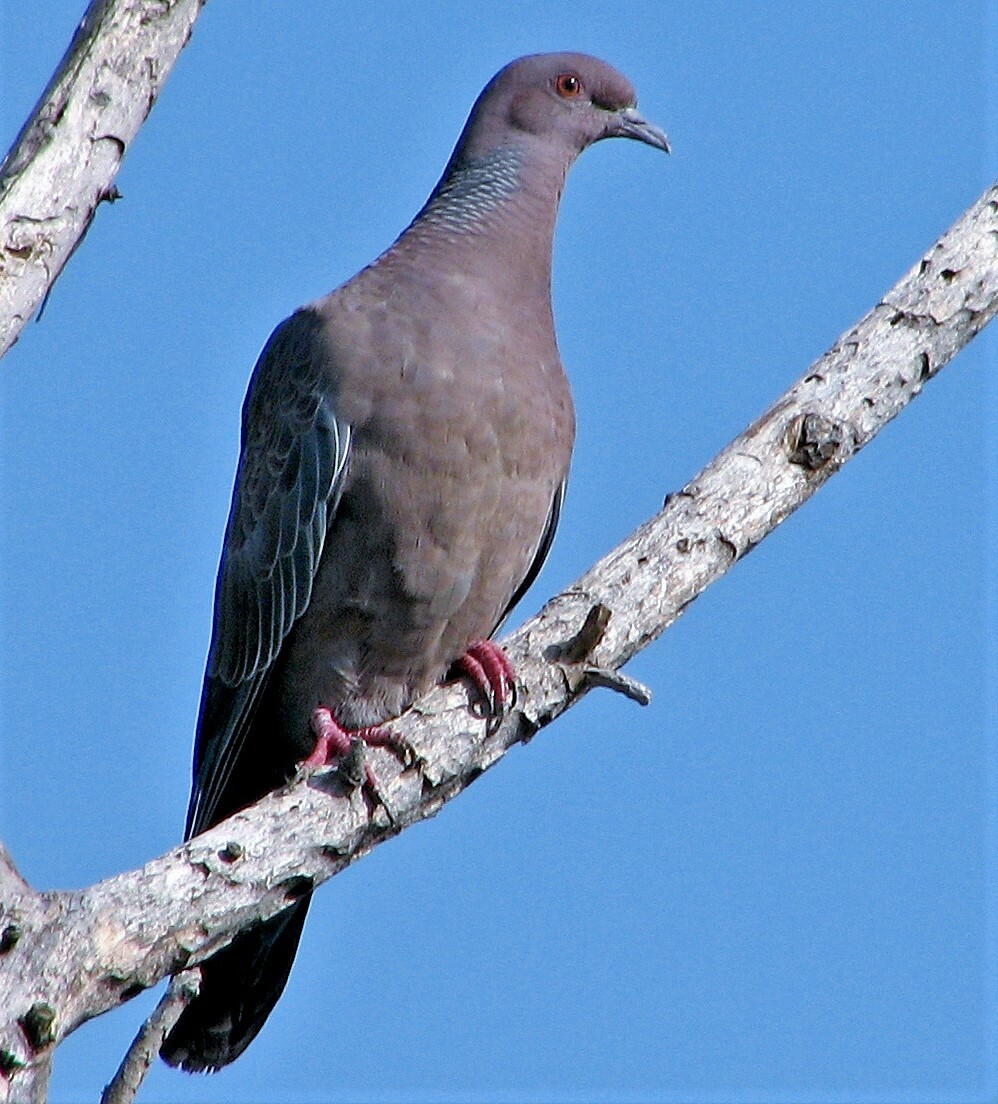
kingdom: Animalia
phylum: Chordata
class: Aves
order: Columbiformes
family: Columbidae
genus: Patagioenas
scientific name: Patagioenas picazuro
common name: Picazuro pigeon
